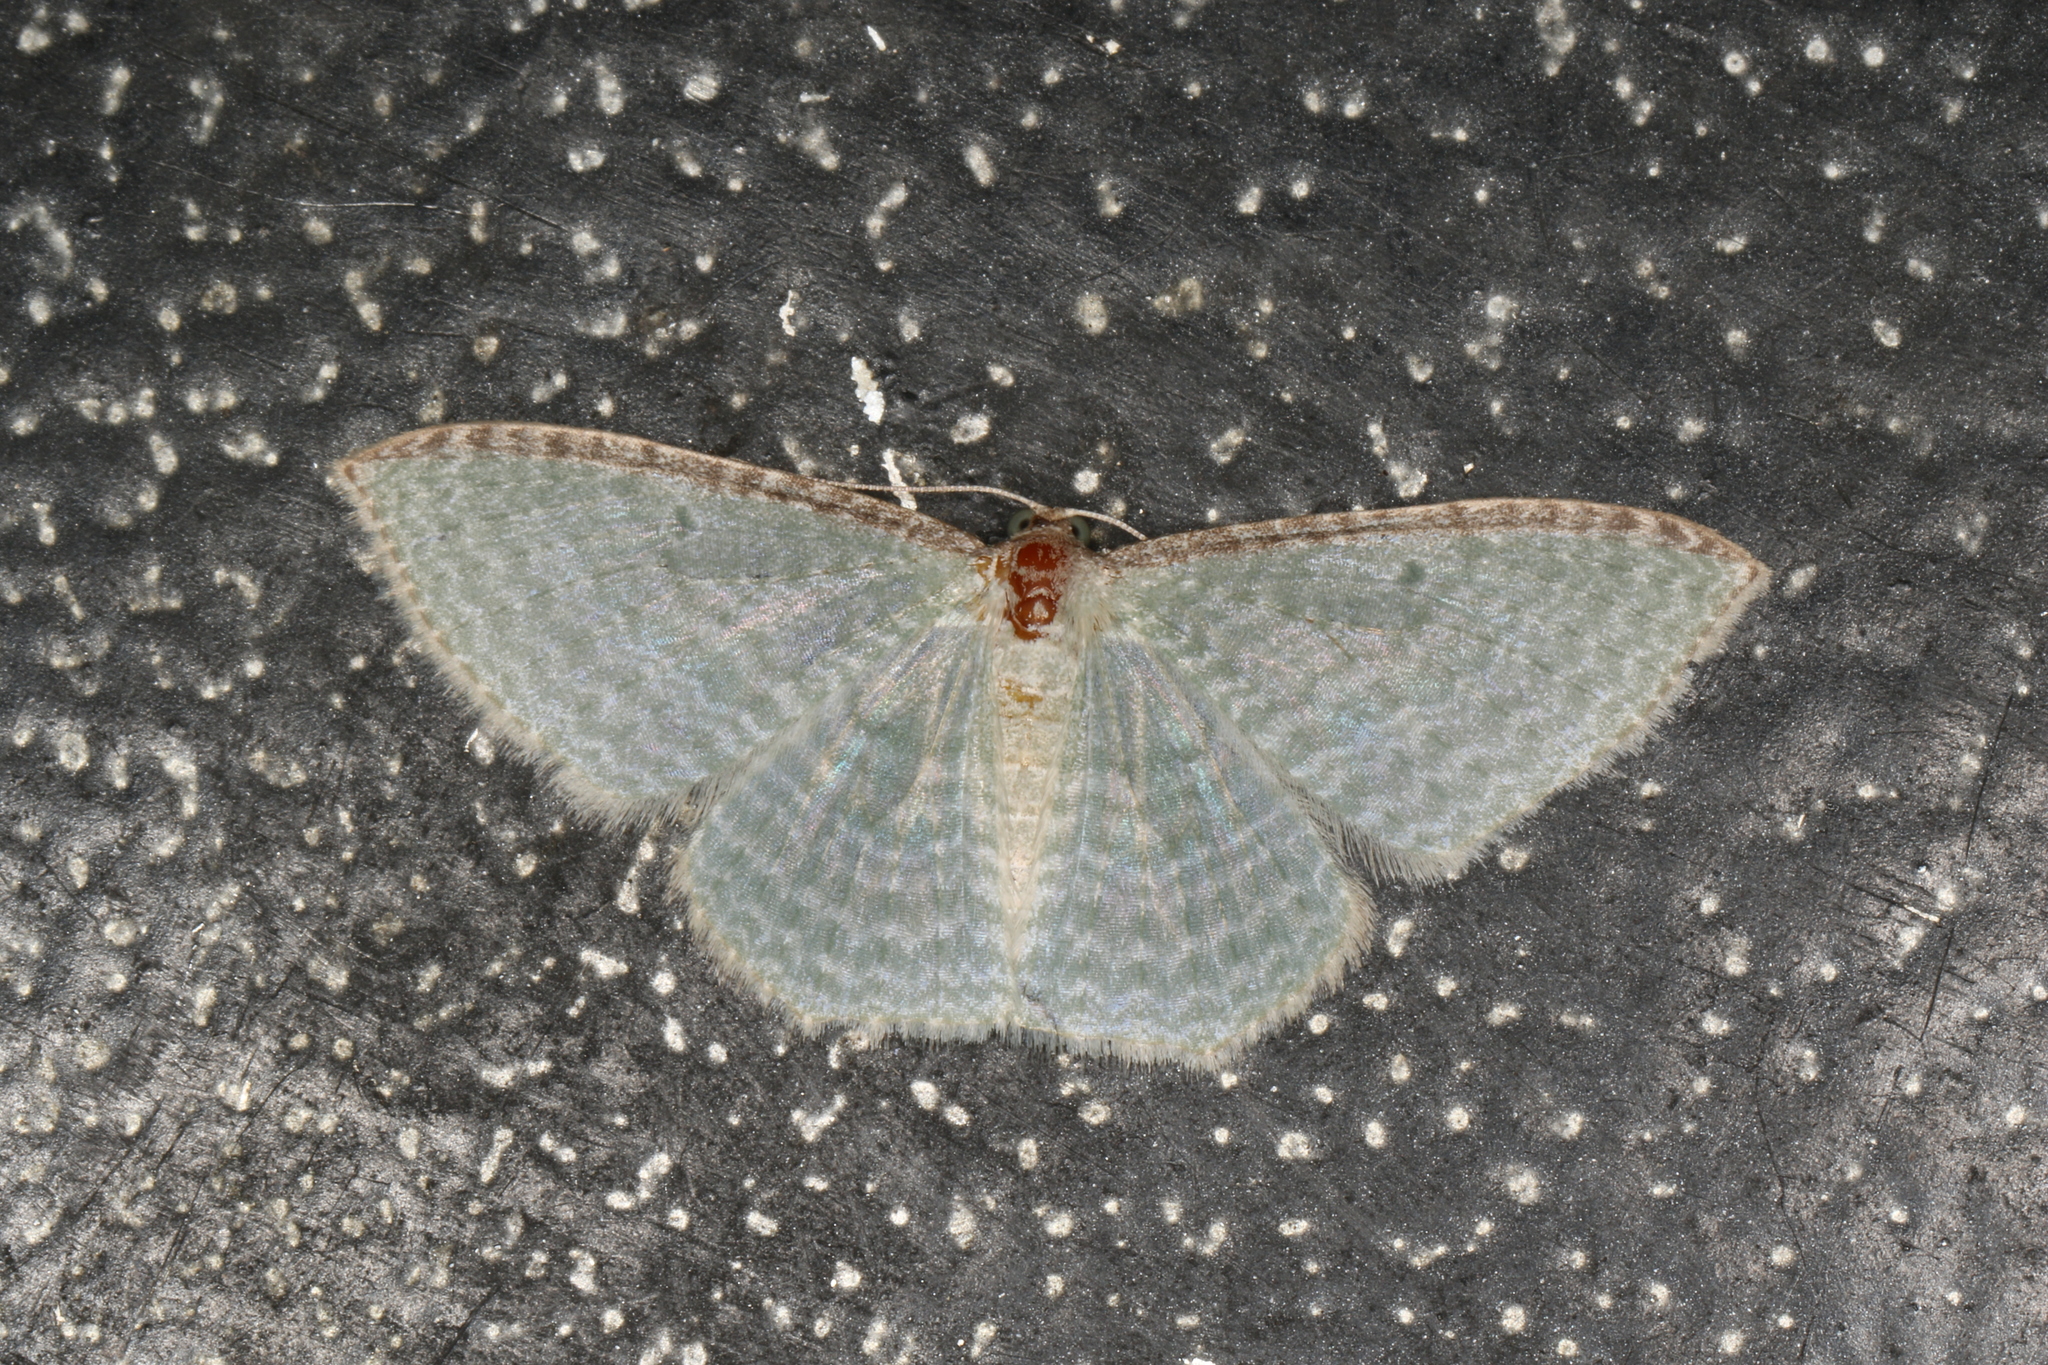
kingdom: Animalia
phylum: Arthropoda
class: Insecta
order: Lepidoptera
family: Geometridae
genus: Poecilasthena
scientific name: Poecilasthena pulchraria
